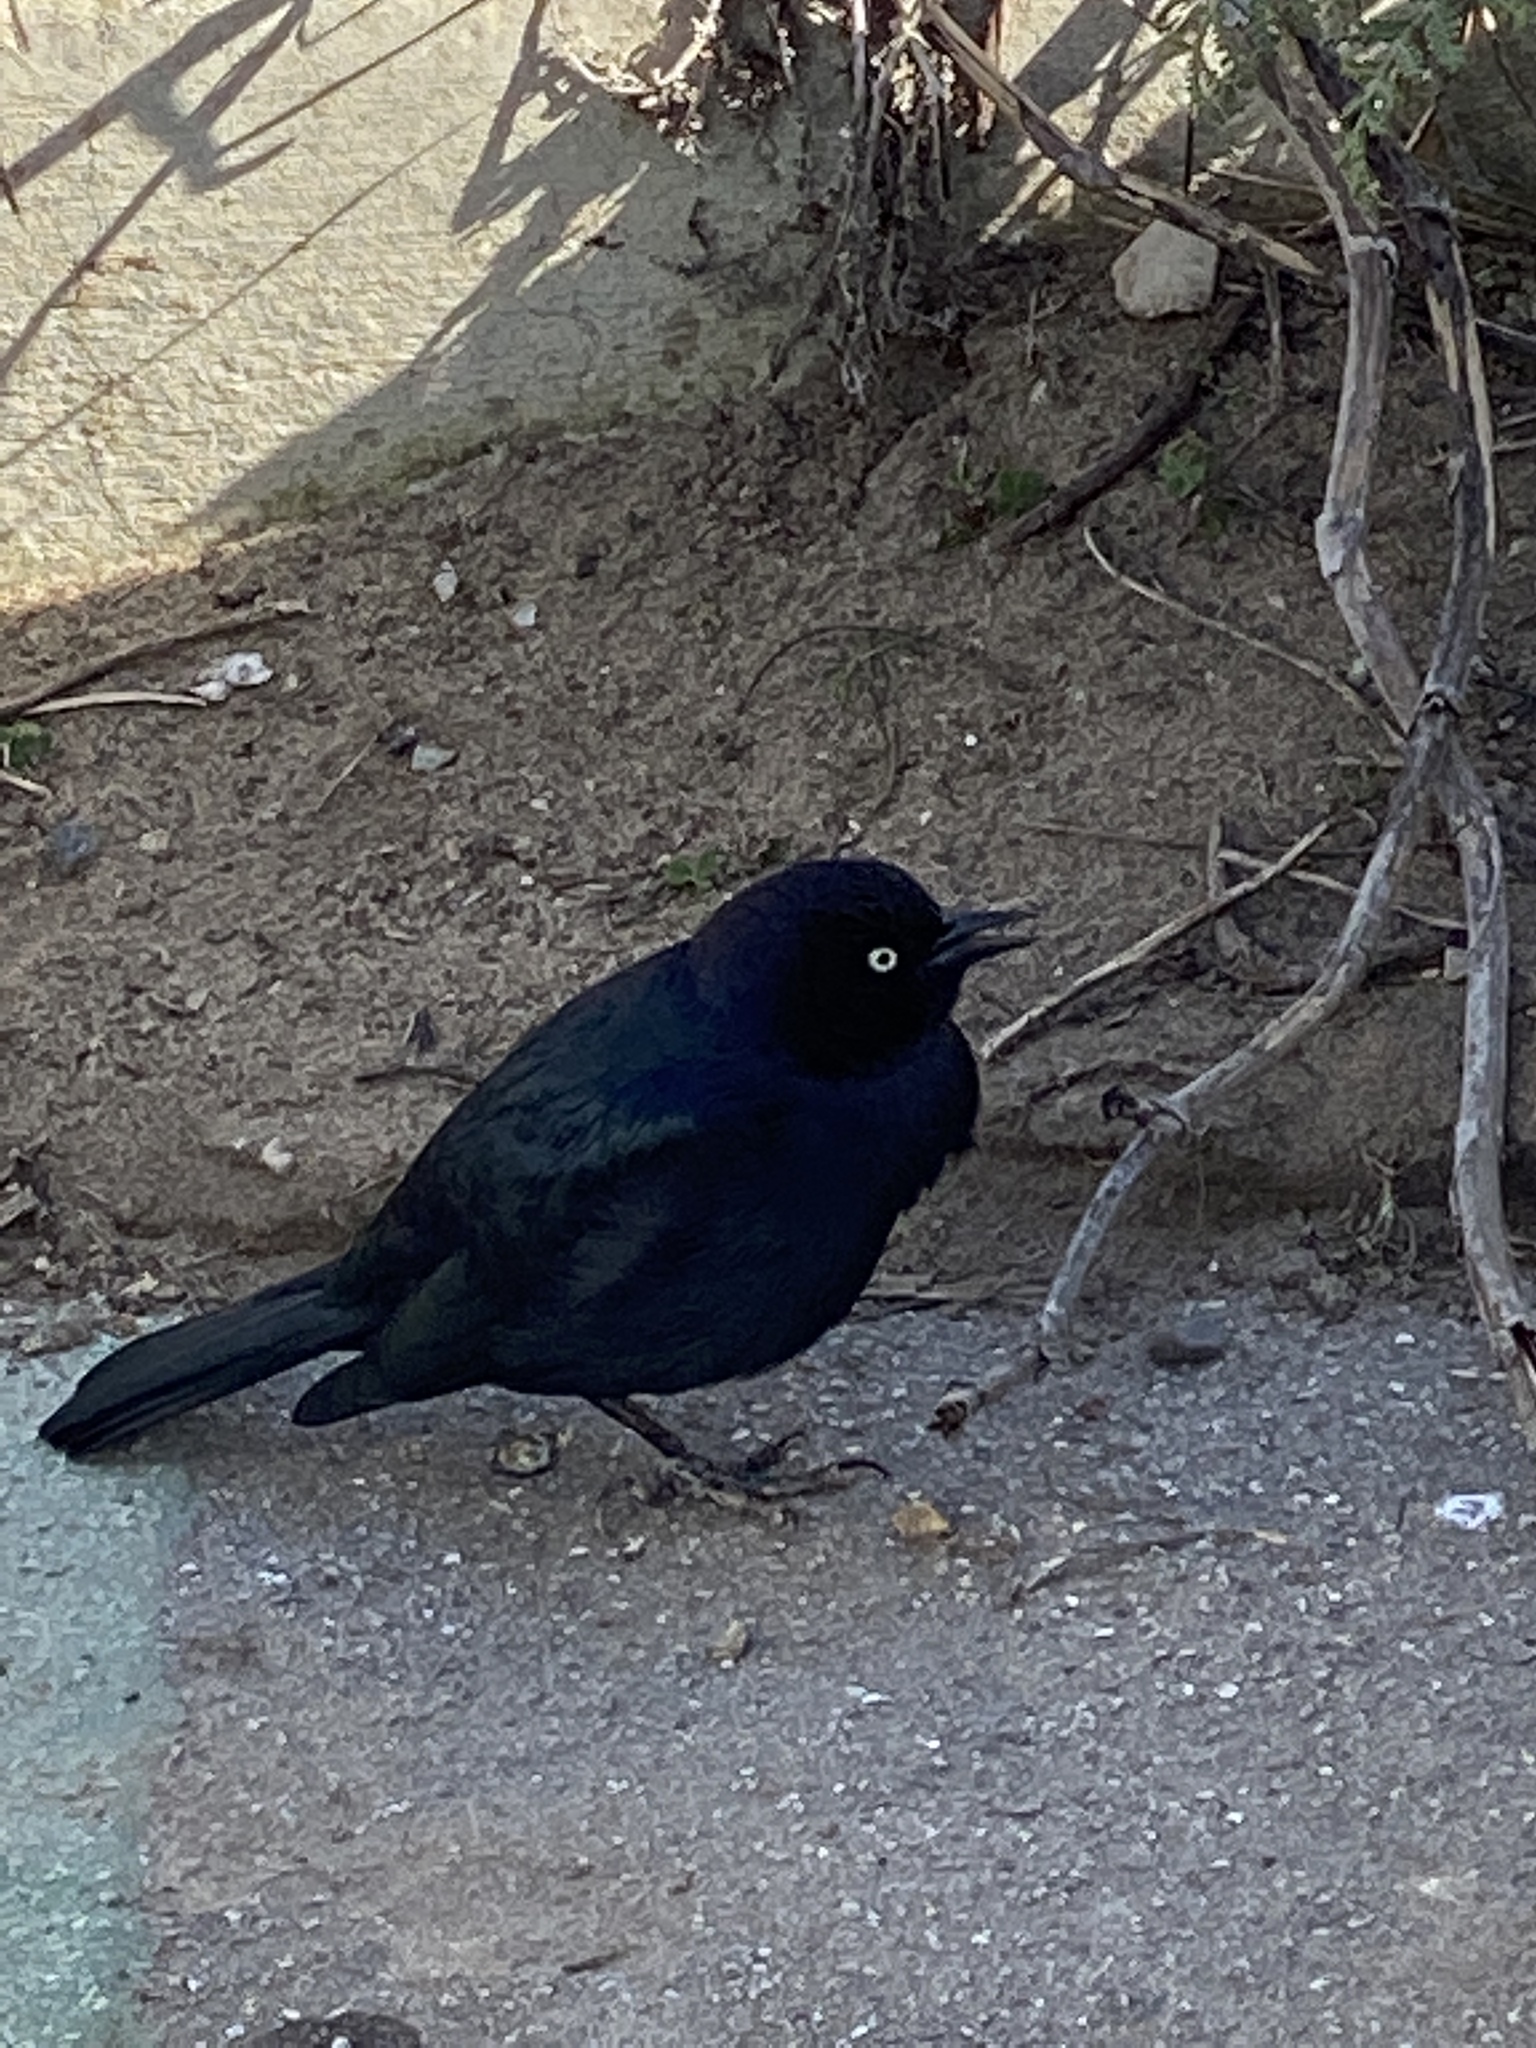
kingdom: Animalia
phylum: Chordata
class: Aves
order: Passeriformes
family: Icteridae
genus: Euphagus
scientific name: Euphagus cyanocephalus
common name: Brewer's blackbird
